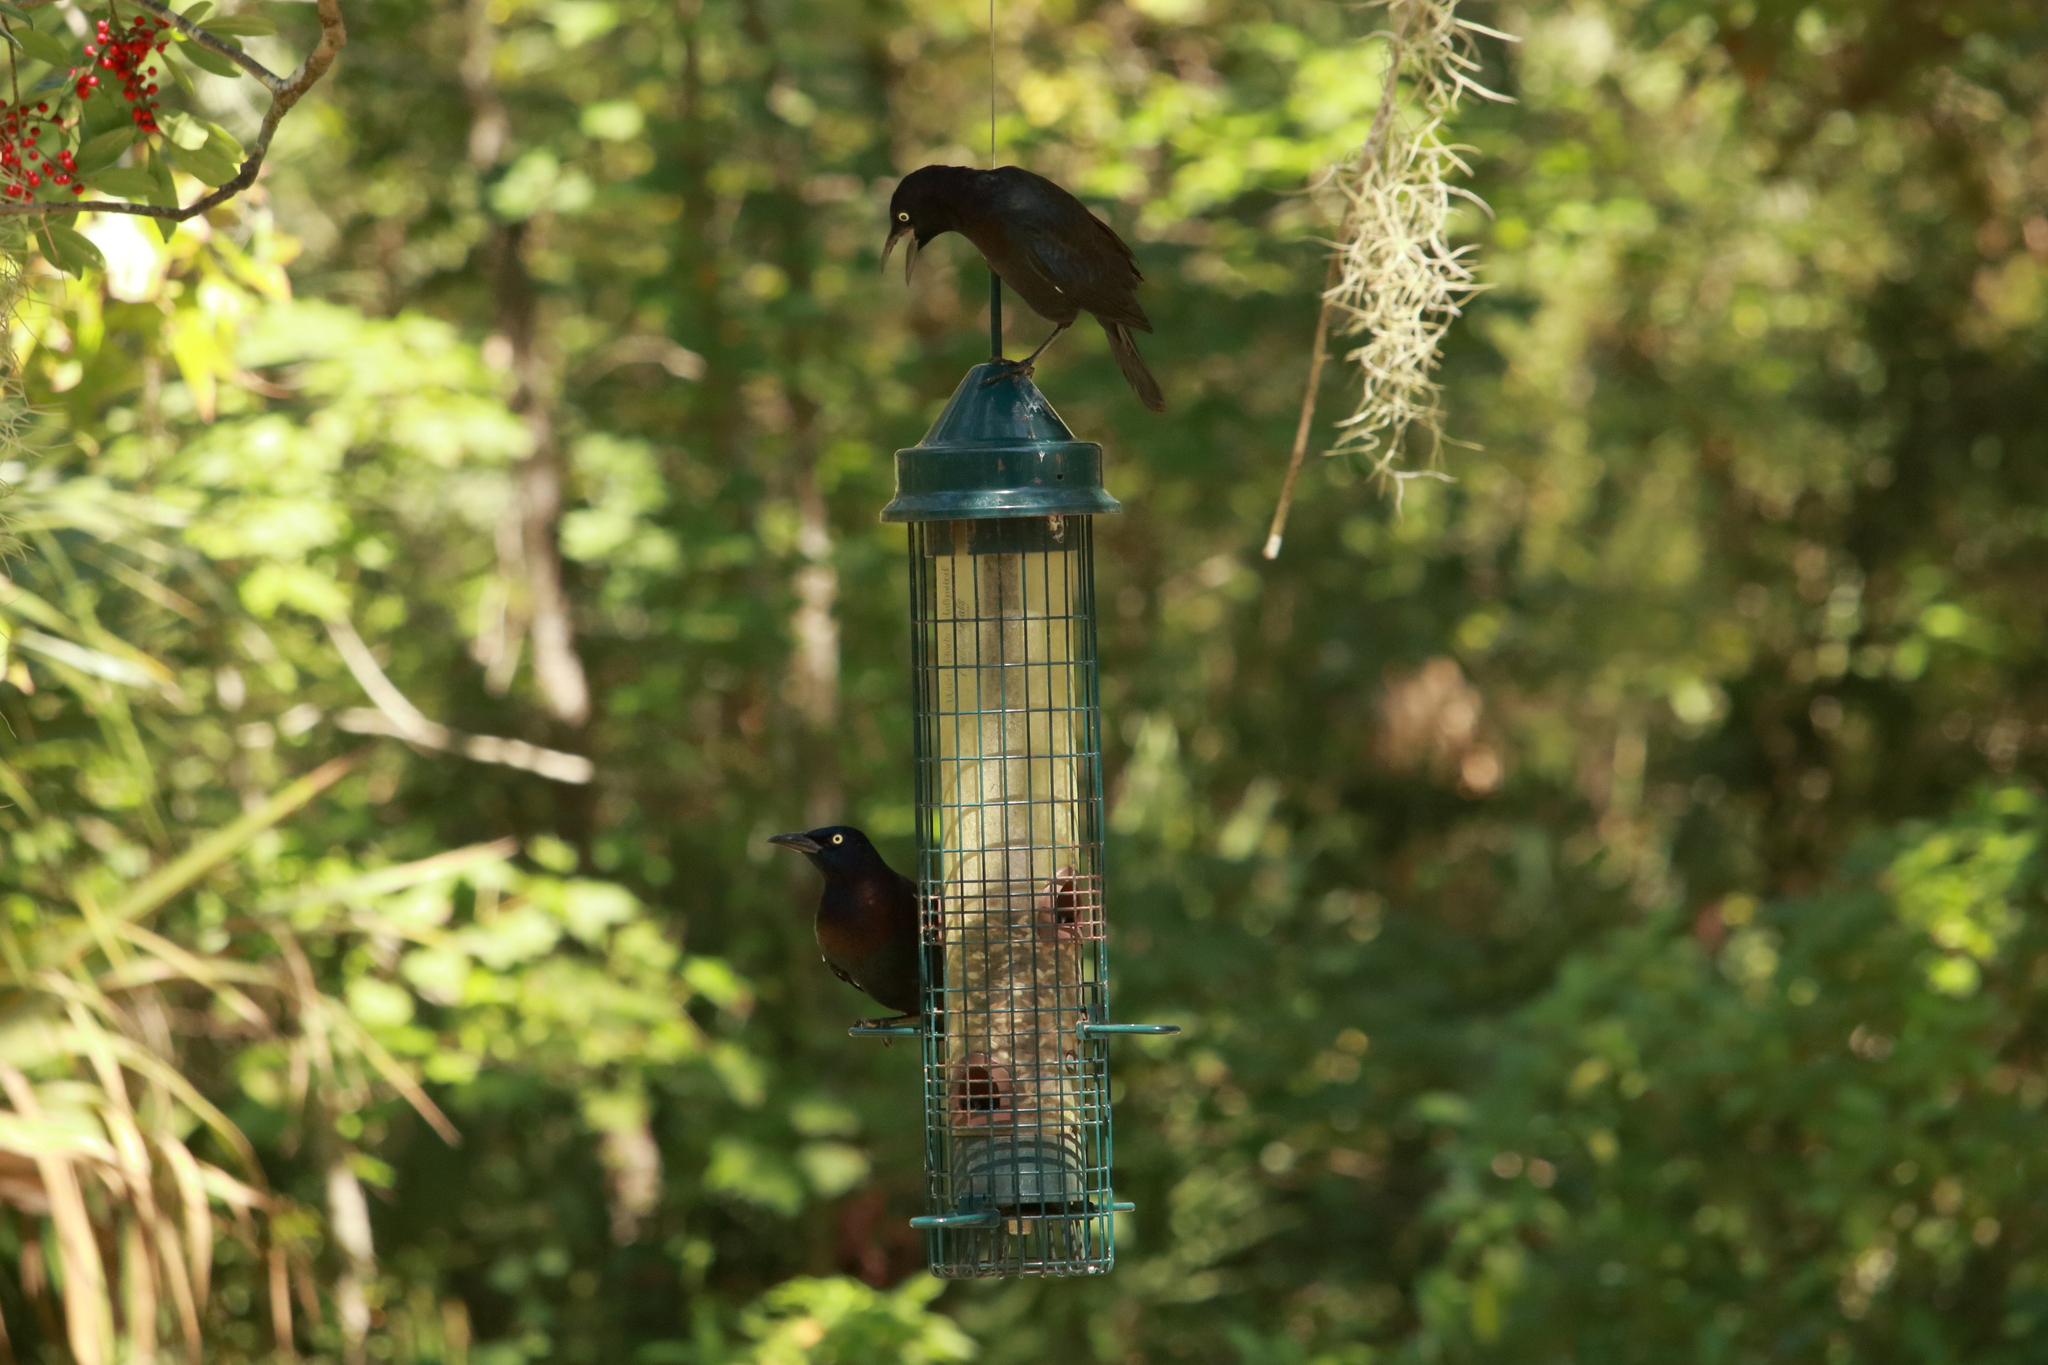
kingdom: Animalia
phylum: Chordata
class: Aves
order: Passeriformes
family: Icteridae
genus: Quiscalus
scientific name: Quiscalus quiscula
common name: Common grackle
